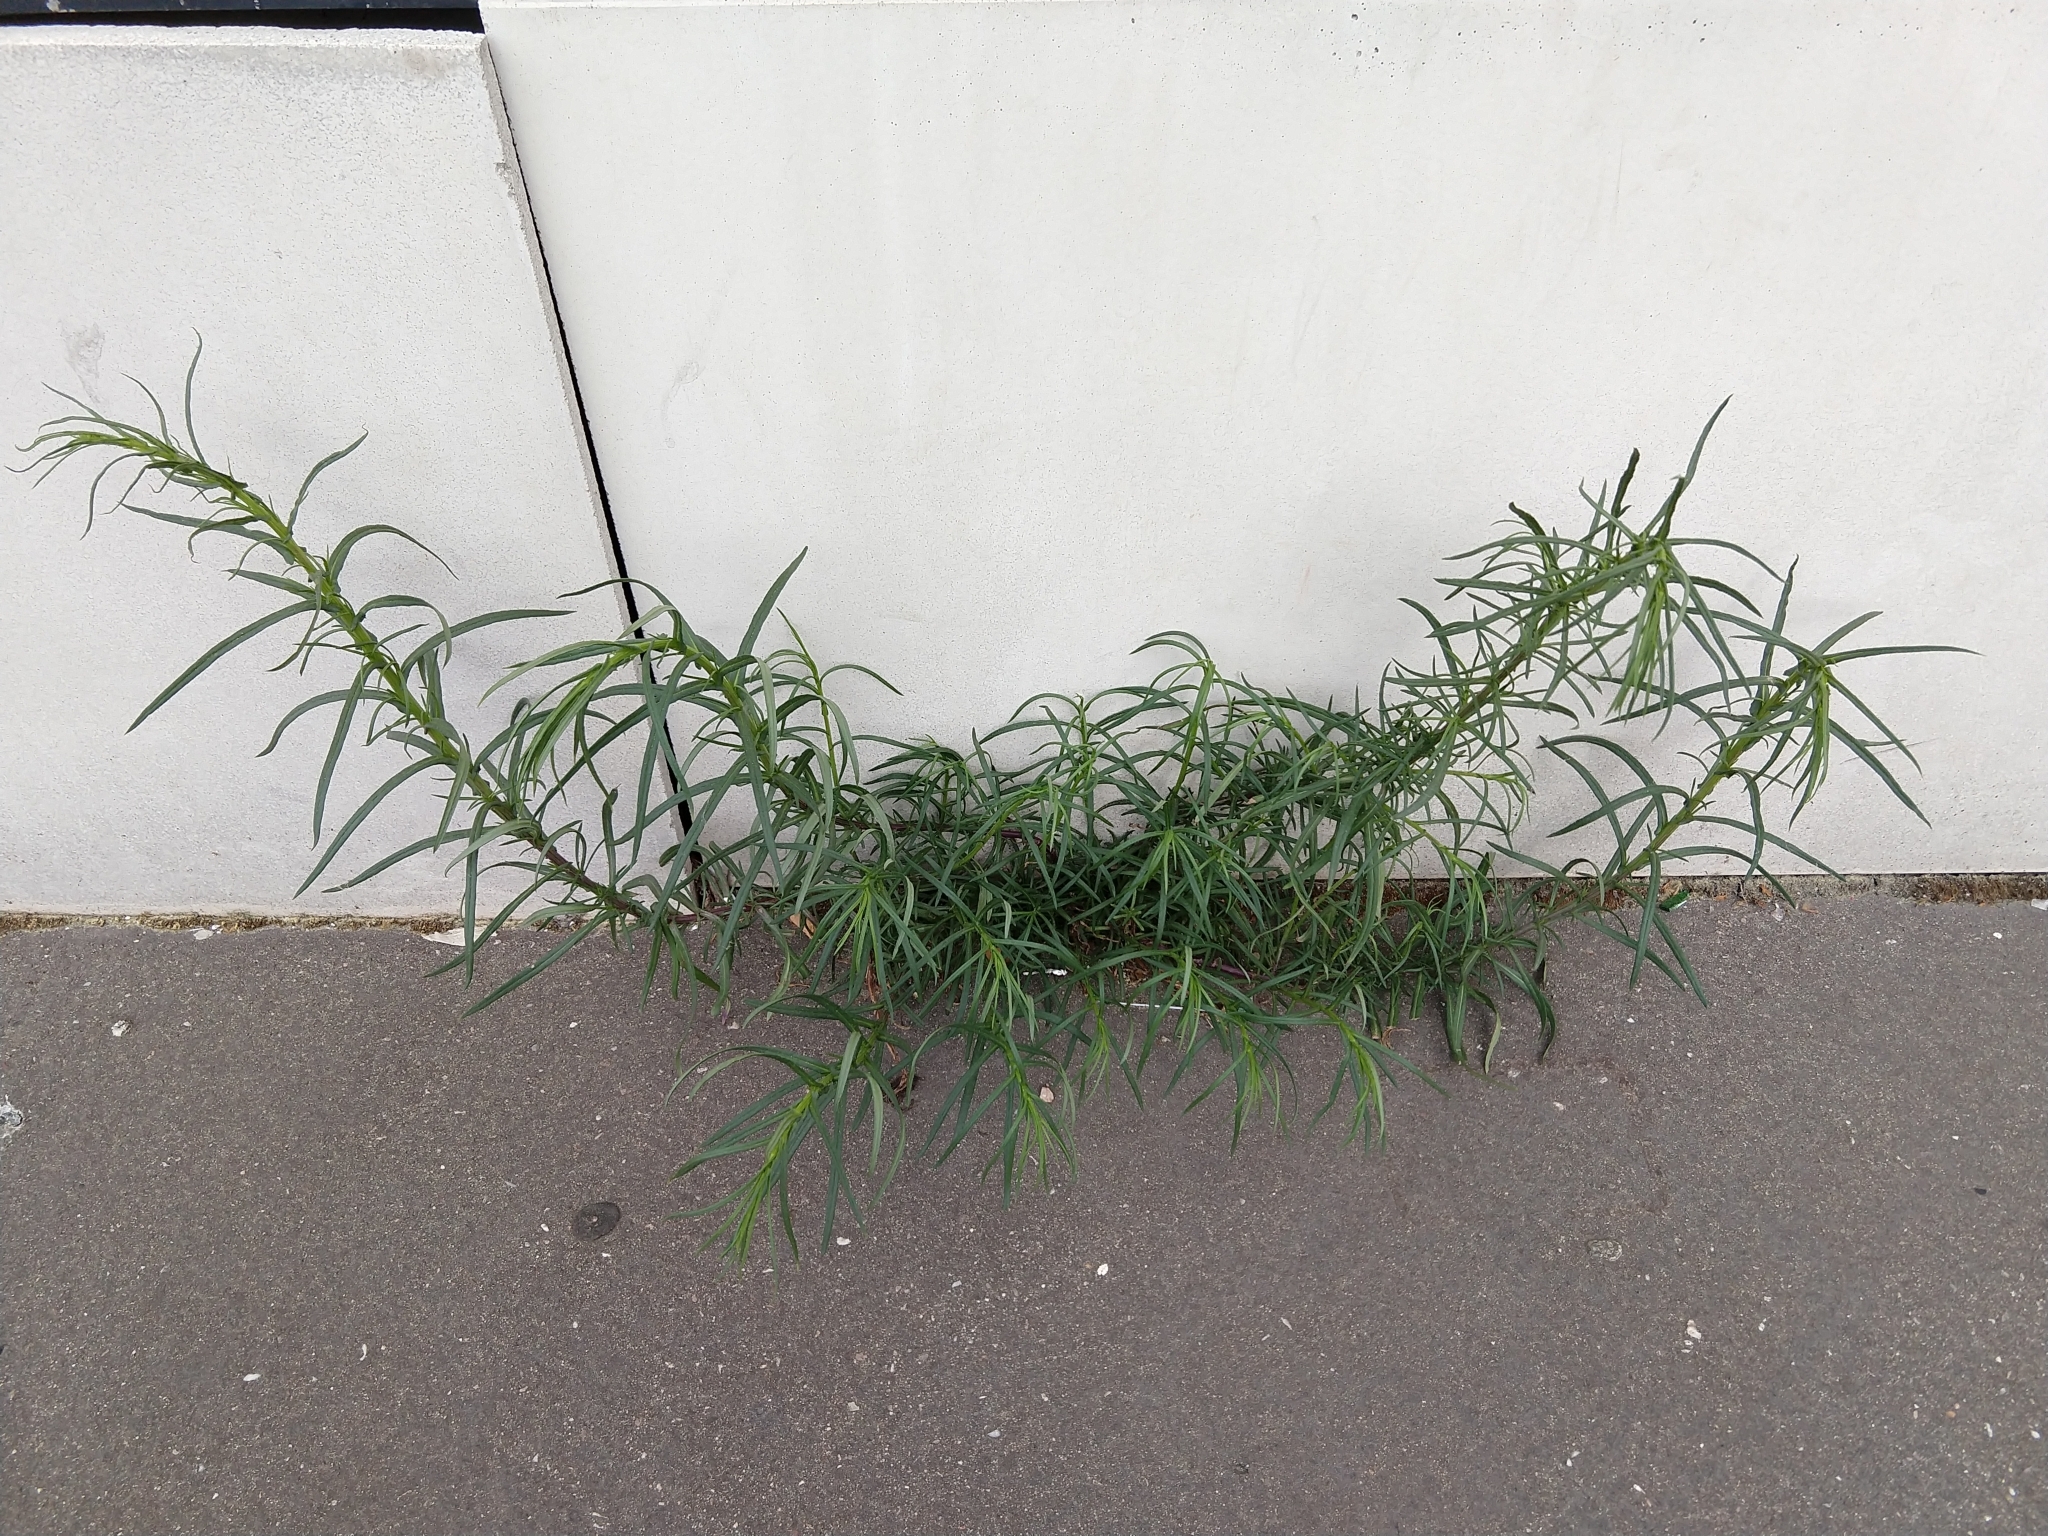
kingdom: Plantae
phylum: Tracheophyta
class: Magnoliopsida
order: Asterales
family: Asteraceae
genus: Senecio
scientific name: Senecio inaequidens
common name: Narrow-leaved ragwort
